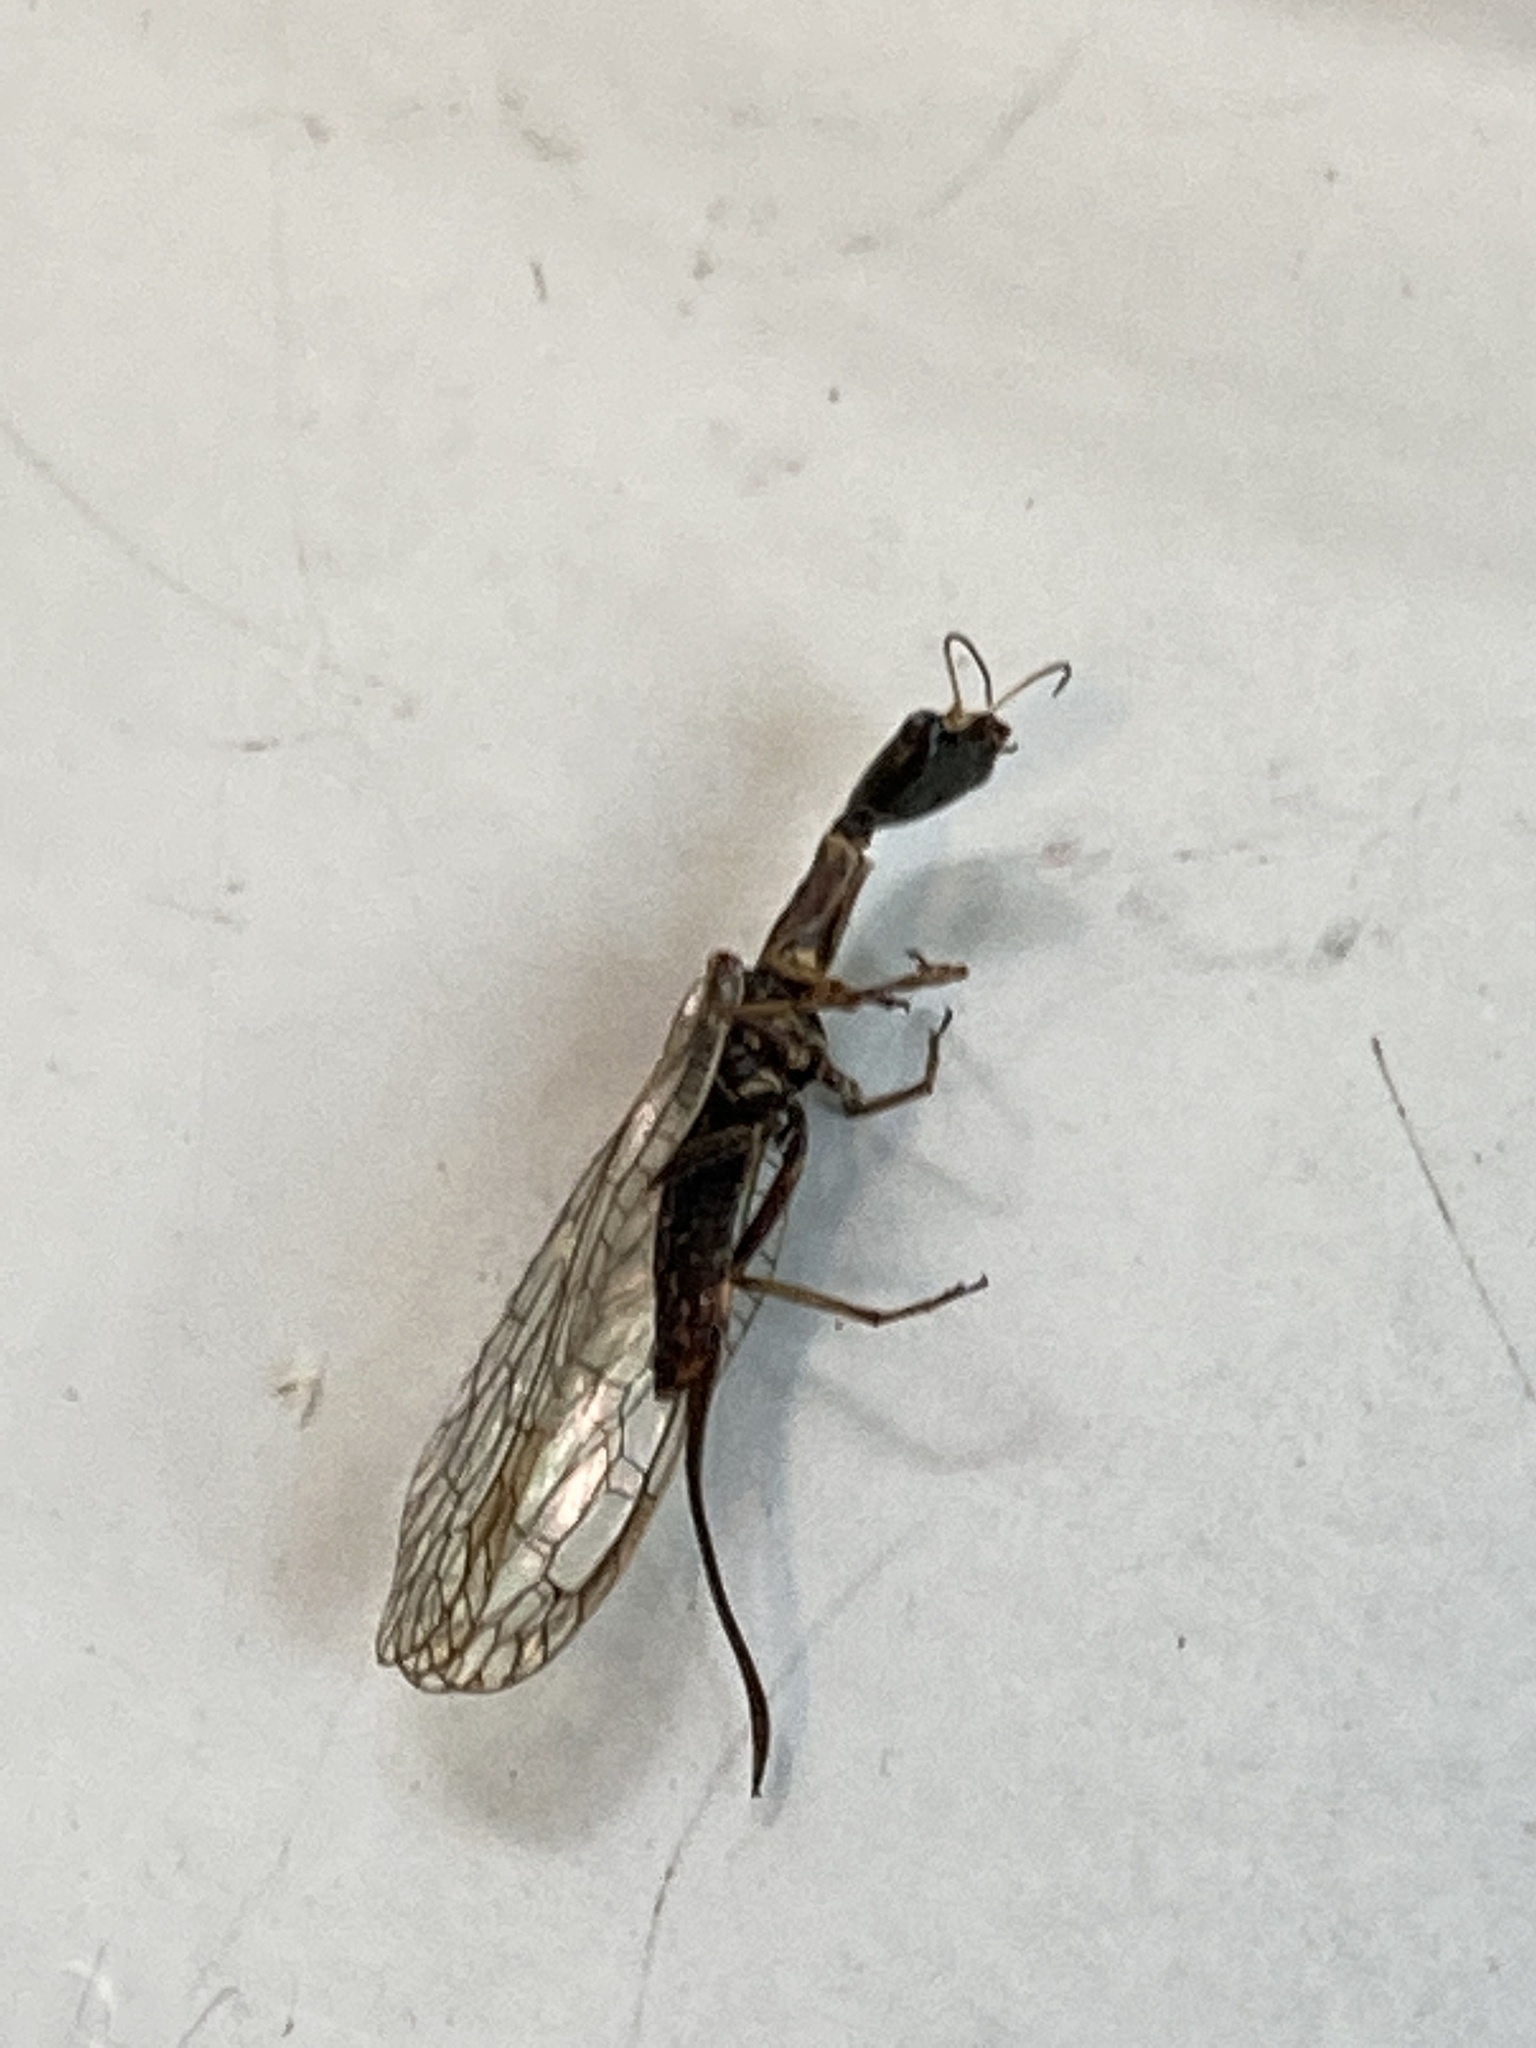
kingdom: Animalia
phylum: Arthropoda
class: Insecta
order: Raphidioptera
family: Raphidiidae
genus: Xanthostigma
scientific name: Xanthostigma xanthostigma
